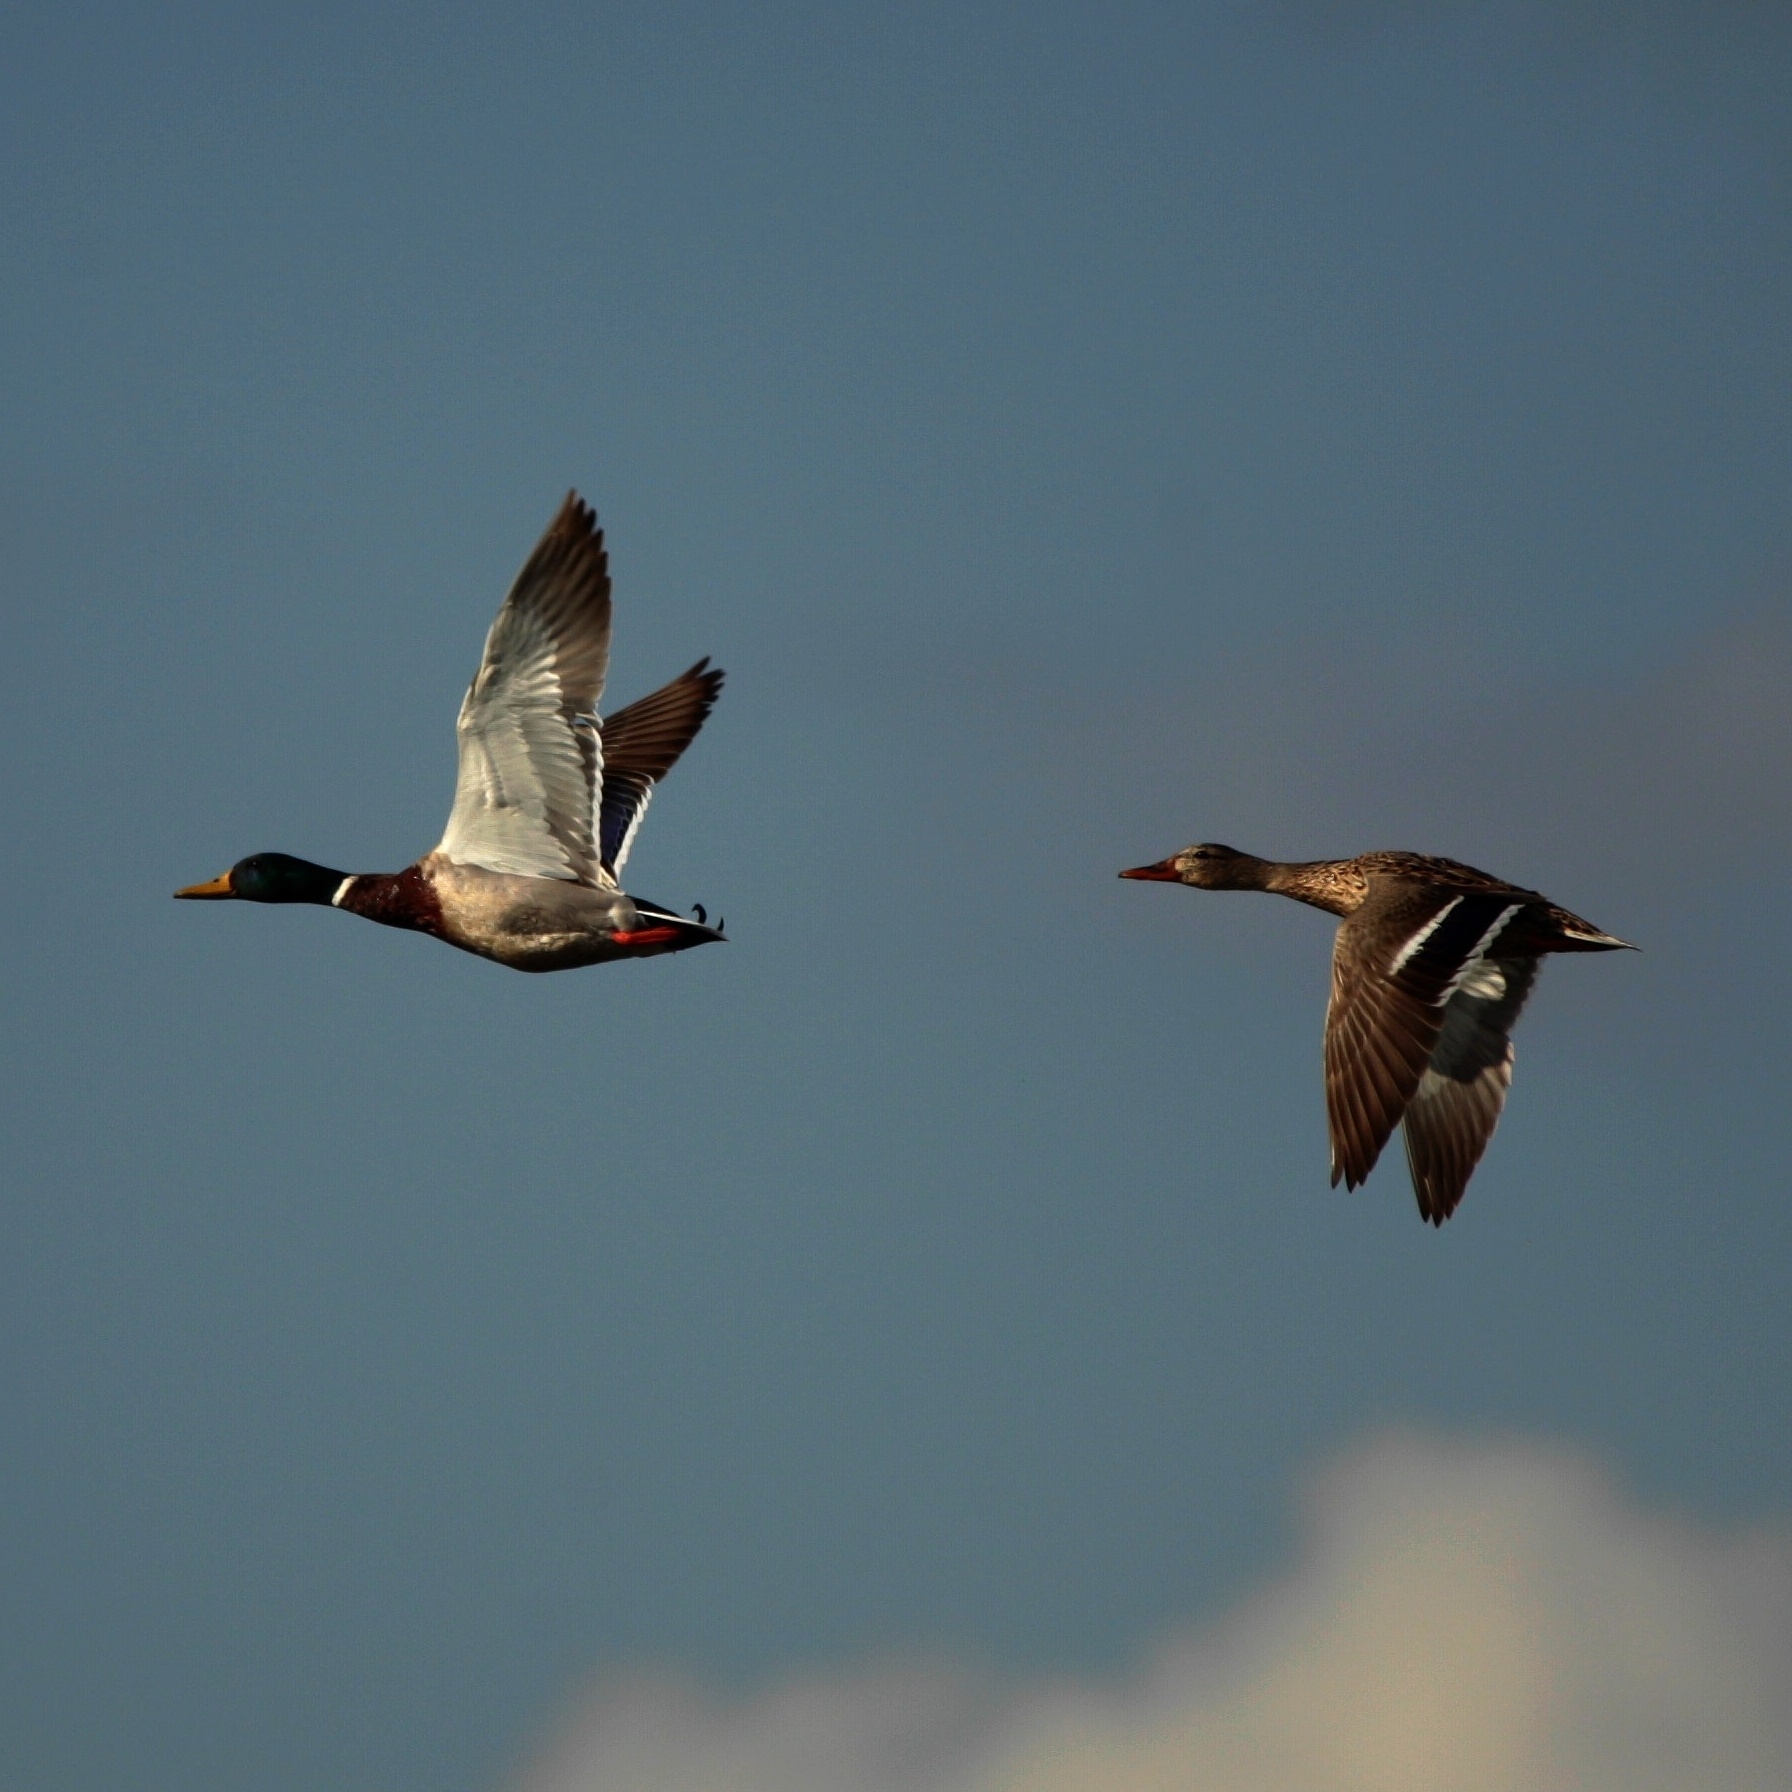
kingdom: Animalia
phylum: Chordata
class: Aves
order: Anseriformes
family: Anatidae
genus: Anas
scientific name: Anas platyrhynchos
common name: Mallard
